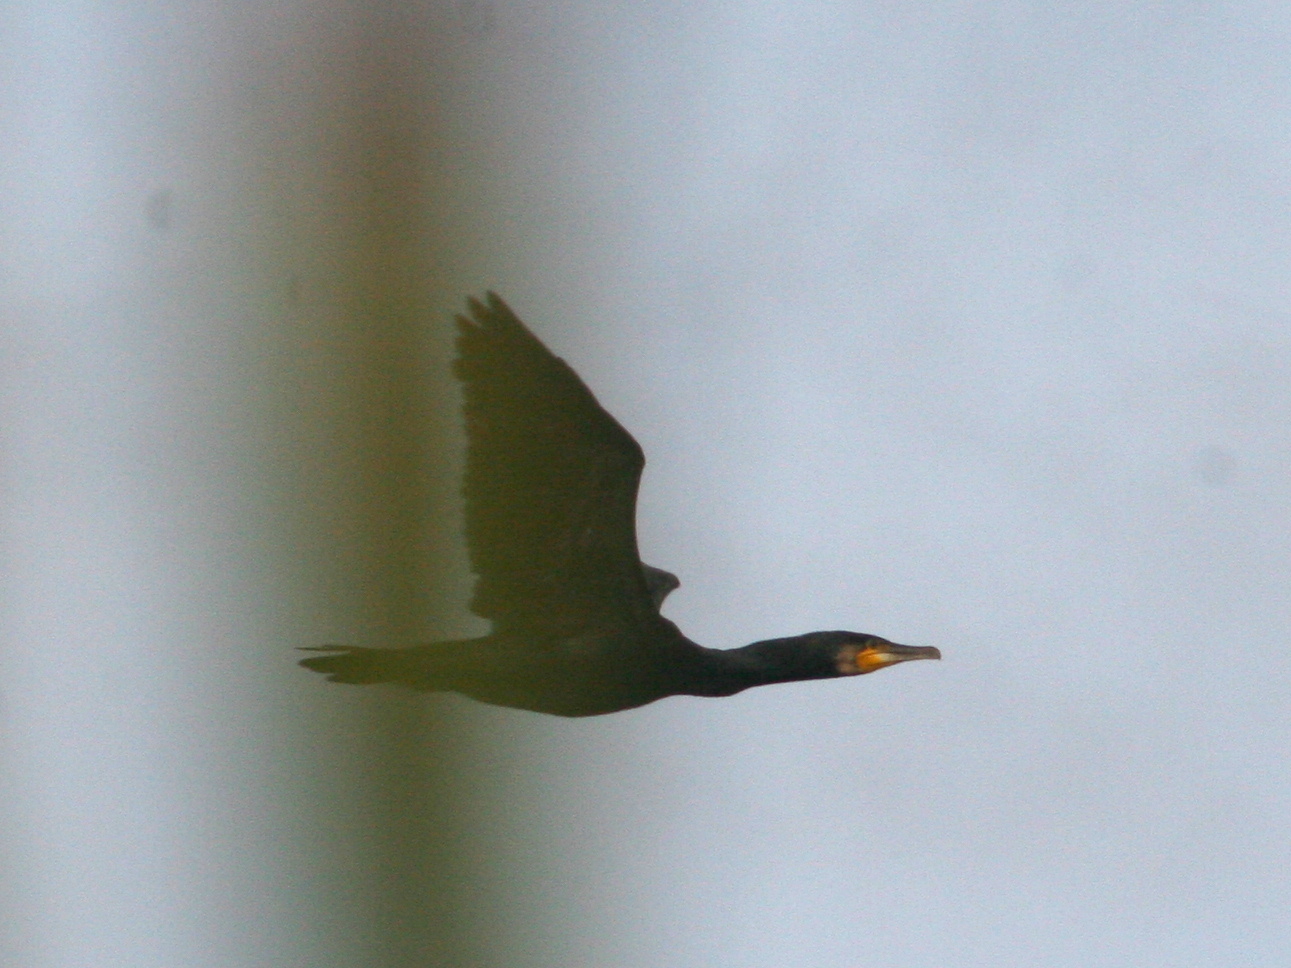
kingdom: Animalia
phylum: Chordata
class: Aves
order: Suliformes
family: Phalacrocoracidae
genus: Phalacrocorax
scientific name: Phalacrocorax carbo
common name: Great cormorant
